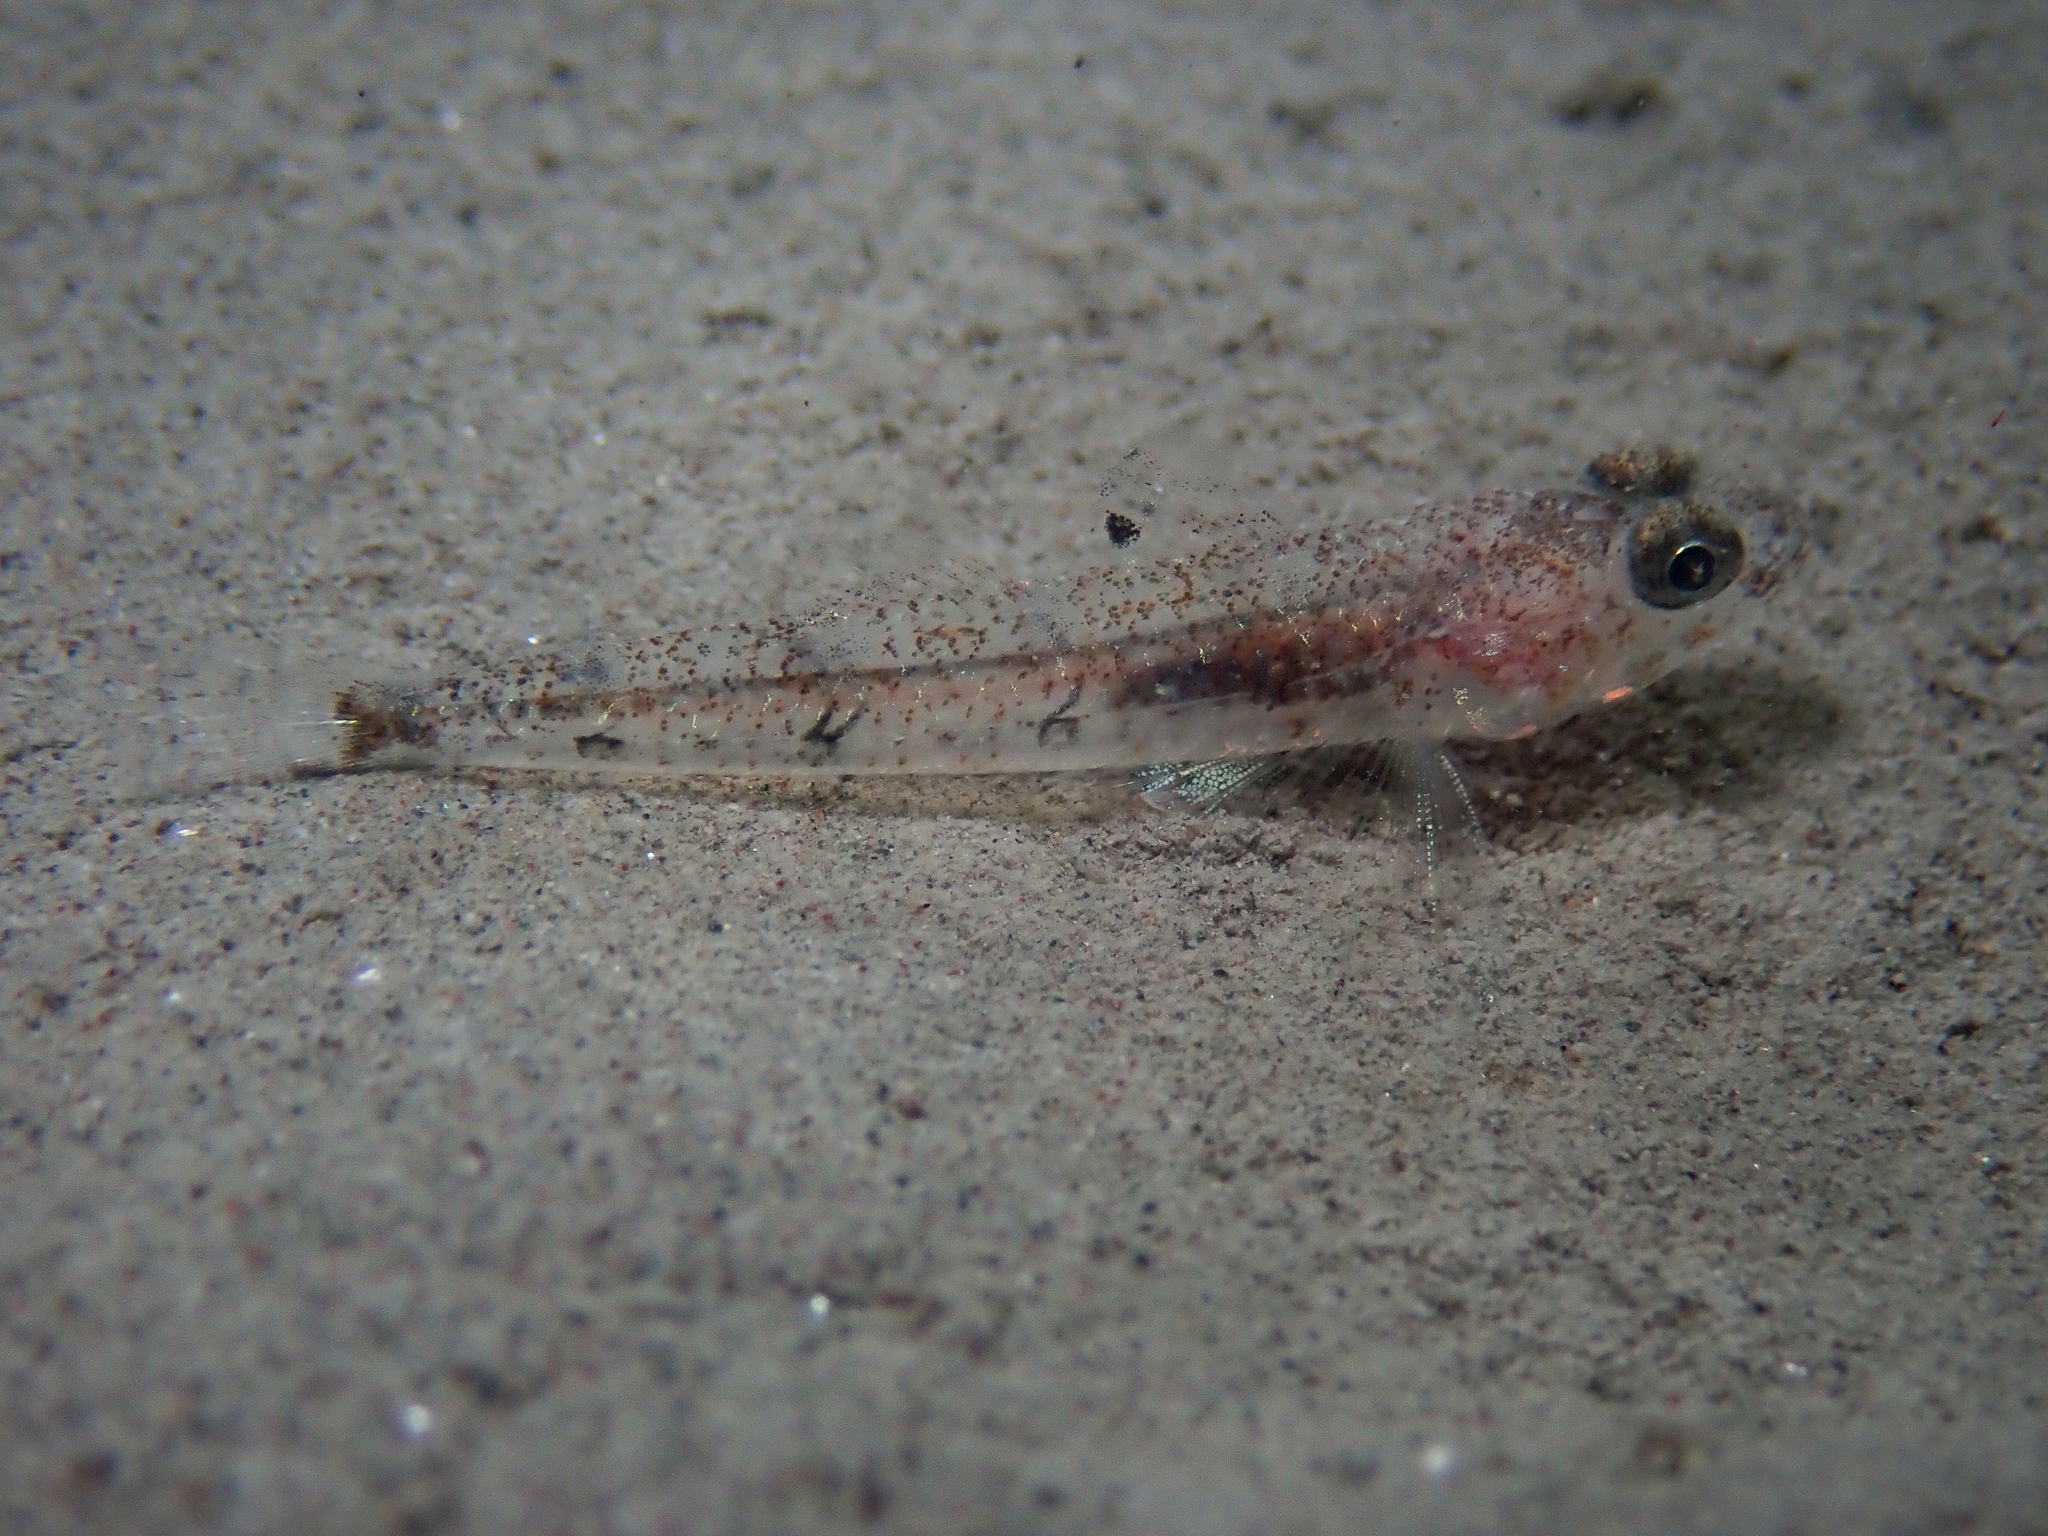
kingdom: Animalia
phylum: Chordata
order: Perciformes
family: Gobiidae
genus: Deltentosteus
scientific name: Deltentosteus quadrimaculatus
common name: Four-spotted goby
